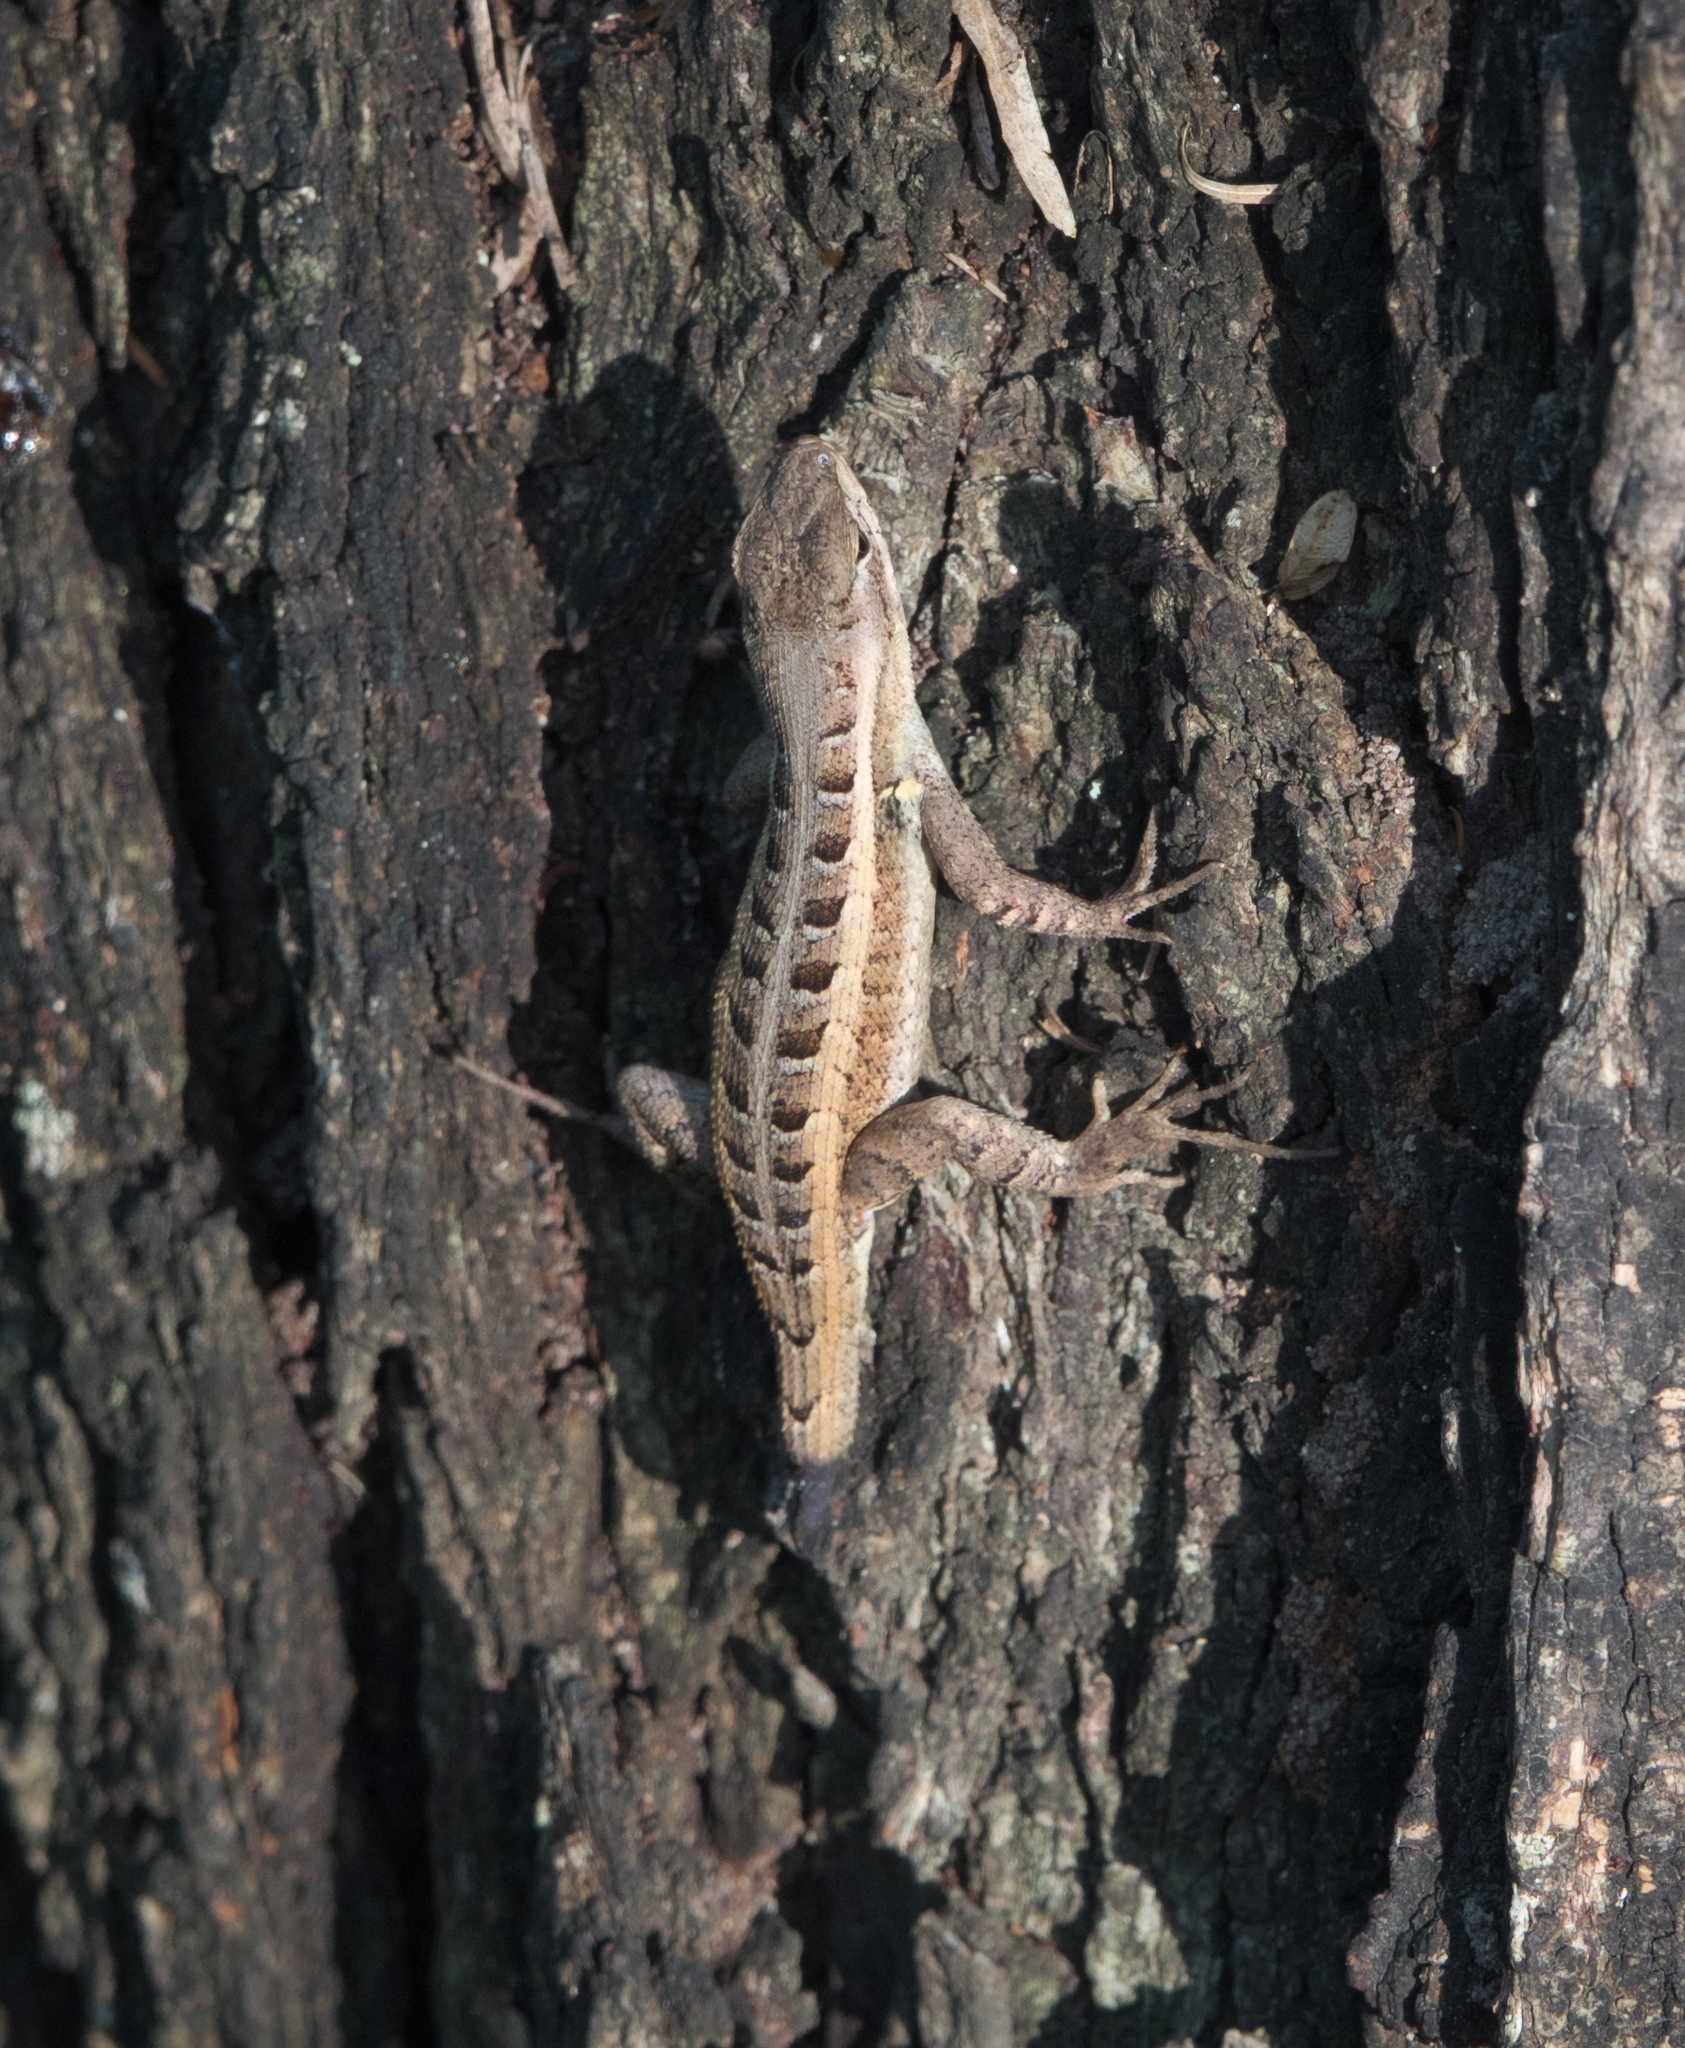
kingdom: Animalia
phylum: Chordata
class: Squamata
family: Phrynosomatidae
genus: Sceloporus
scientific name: Sceloporus variabilis
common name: Rosebelly lizard
